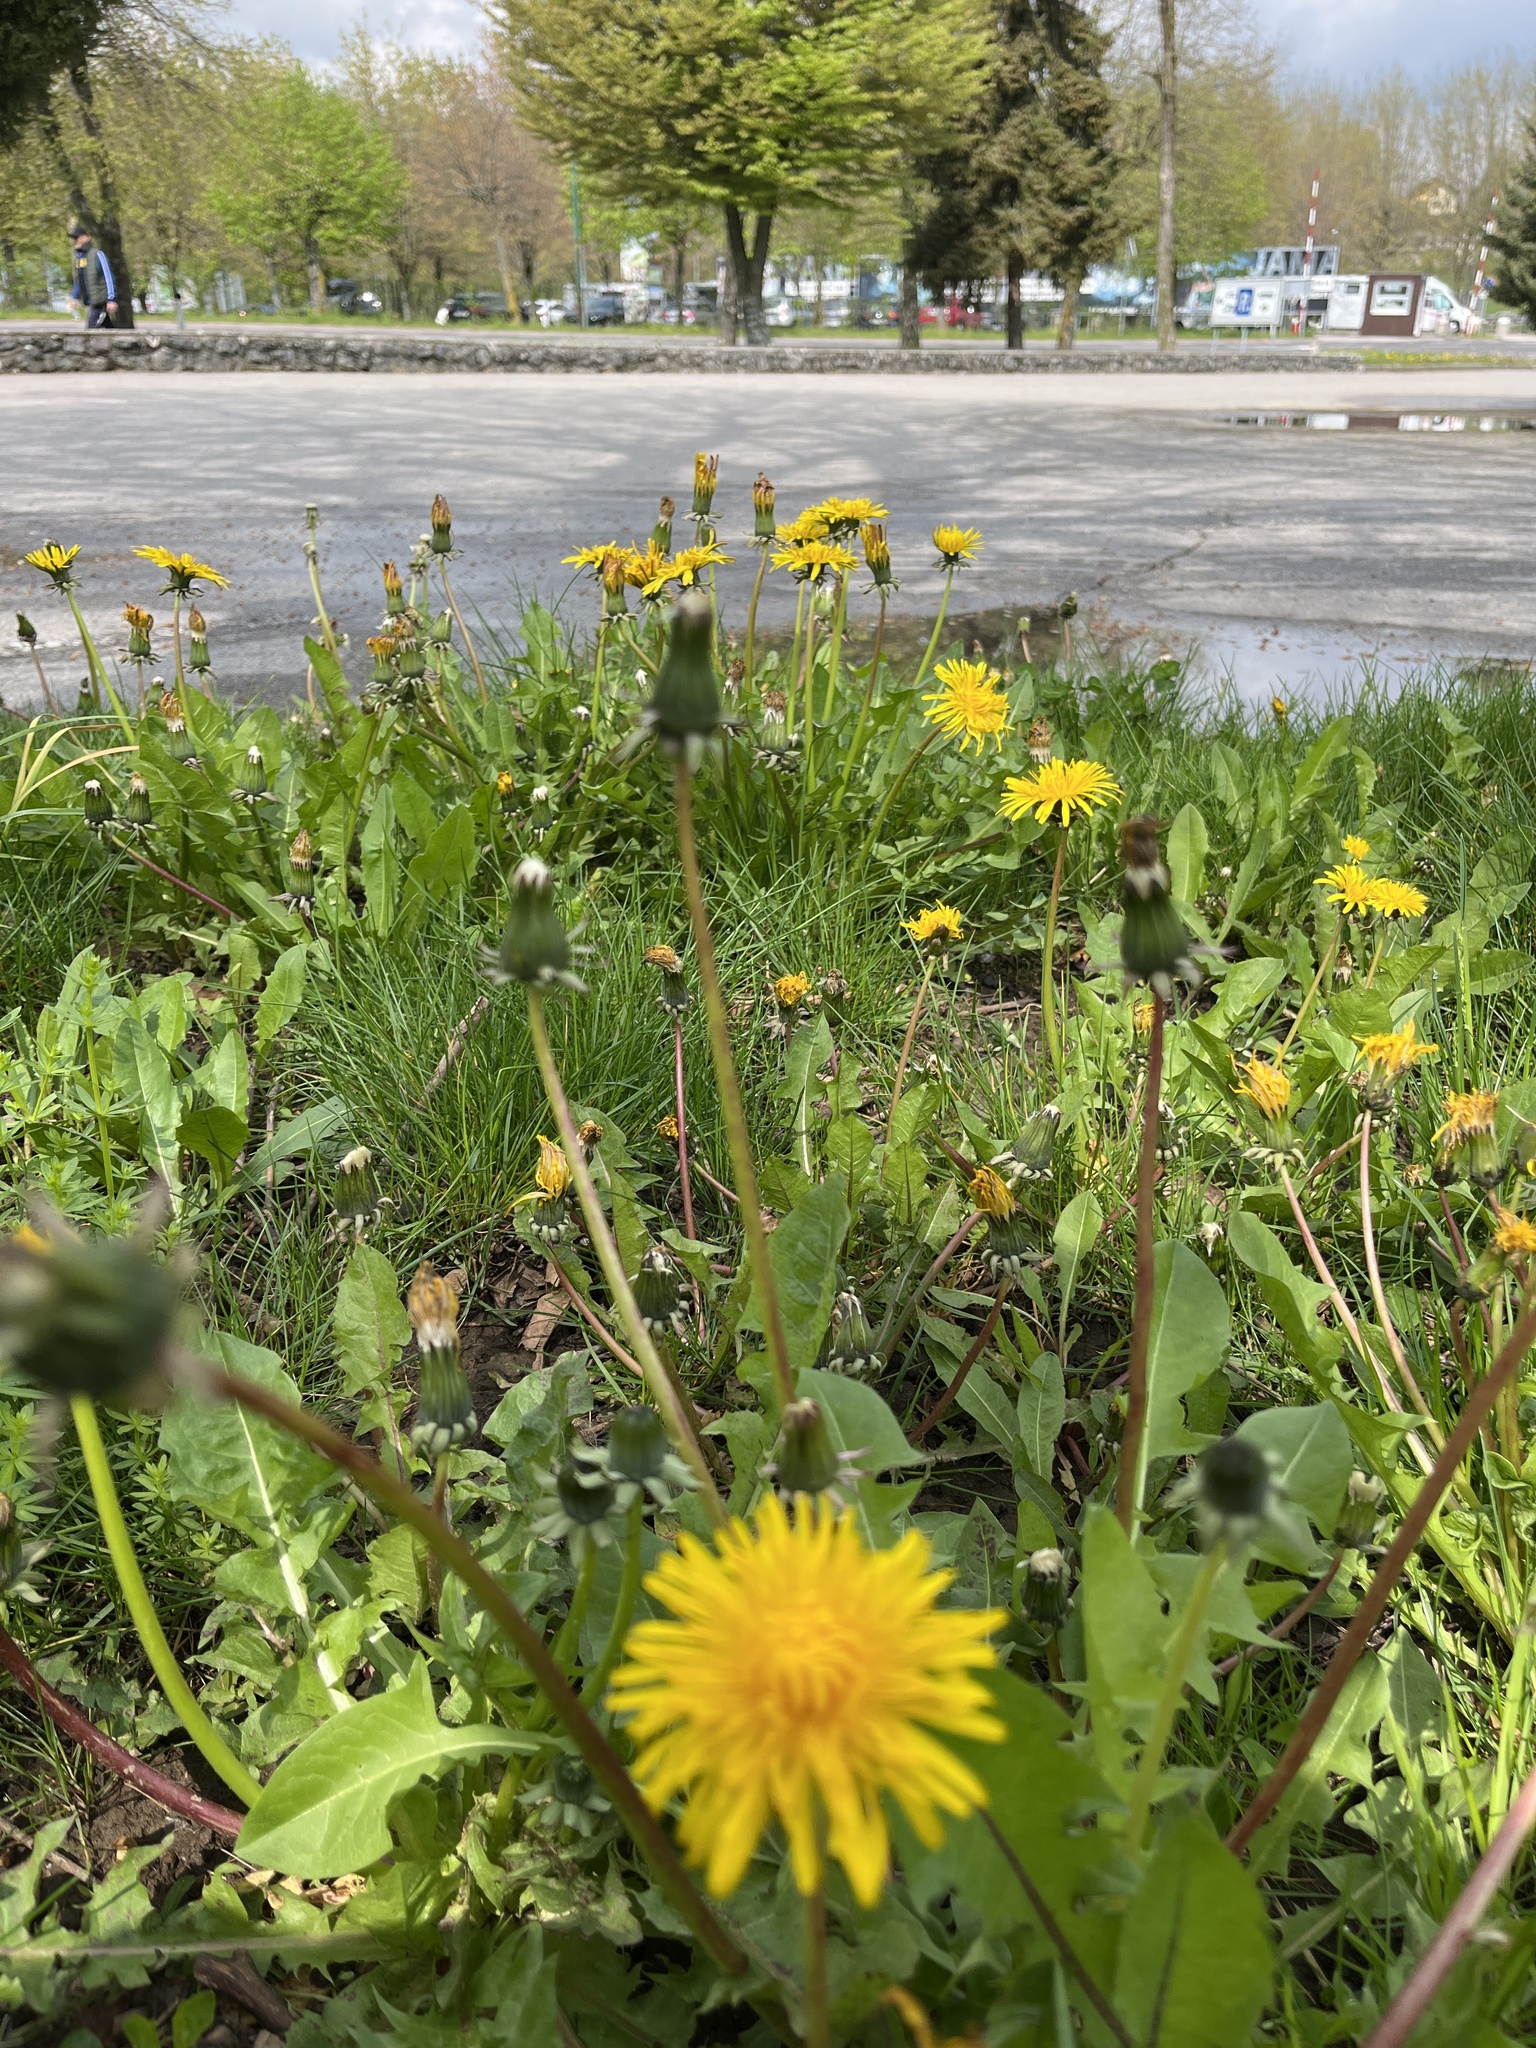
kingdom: Plantae
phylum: Tracheophyta
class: Magnoliopsida
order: Asterales
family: Asteraceae
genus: Taraxacum
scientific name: Taraxacum officinale
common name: Common dandelion
